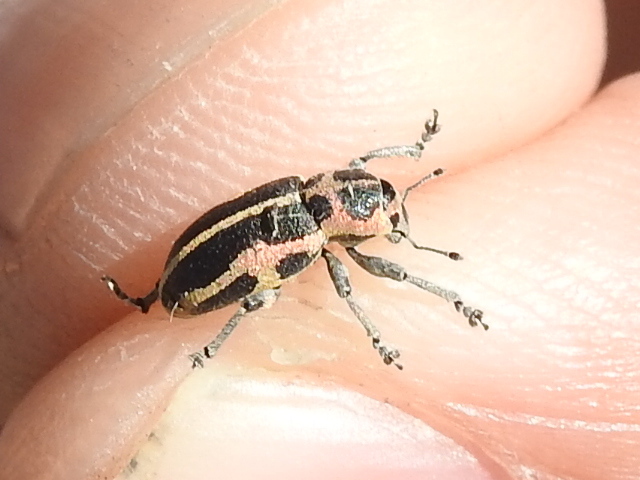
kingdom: Animalia
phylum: Arthropoda
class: Insecta
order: Coleoptera
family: Curculionidae
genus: Eudiagogus
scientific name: Eudiagogus pulcher
